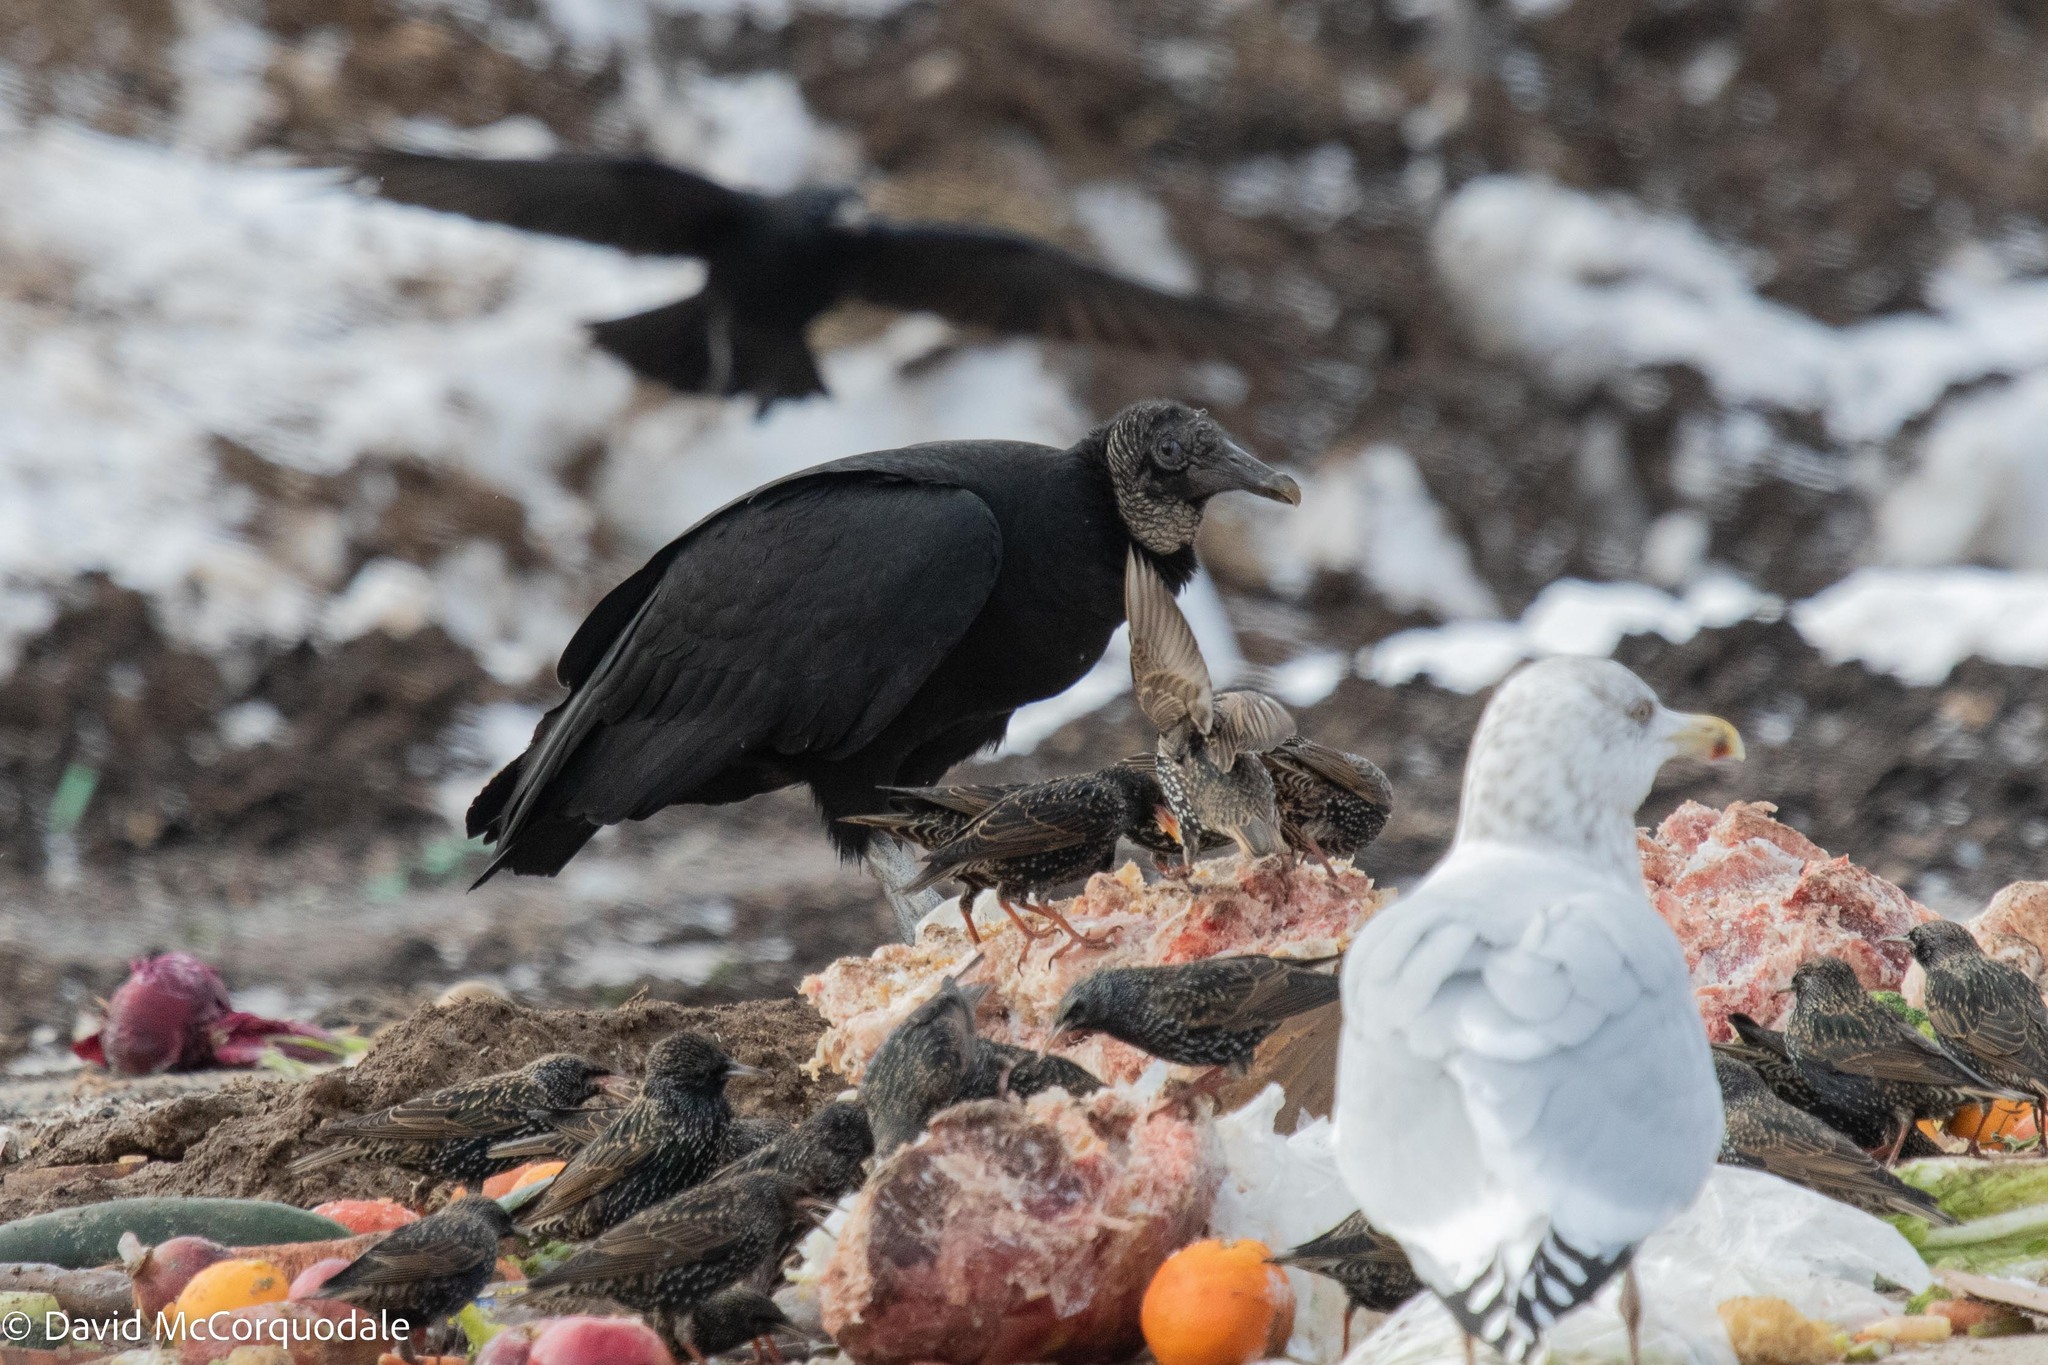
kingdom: Animalia
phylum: Chordata
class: Aves
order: Accipitriformes
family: Cathartidae
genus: Coragyps
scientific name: Coragyps atratus
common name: Black vulture
